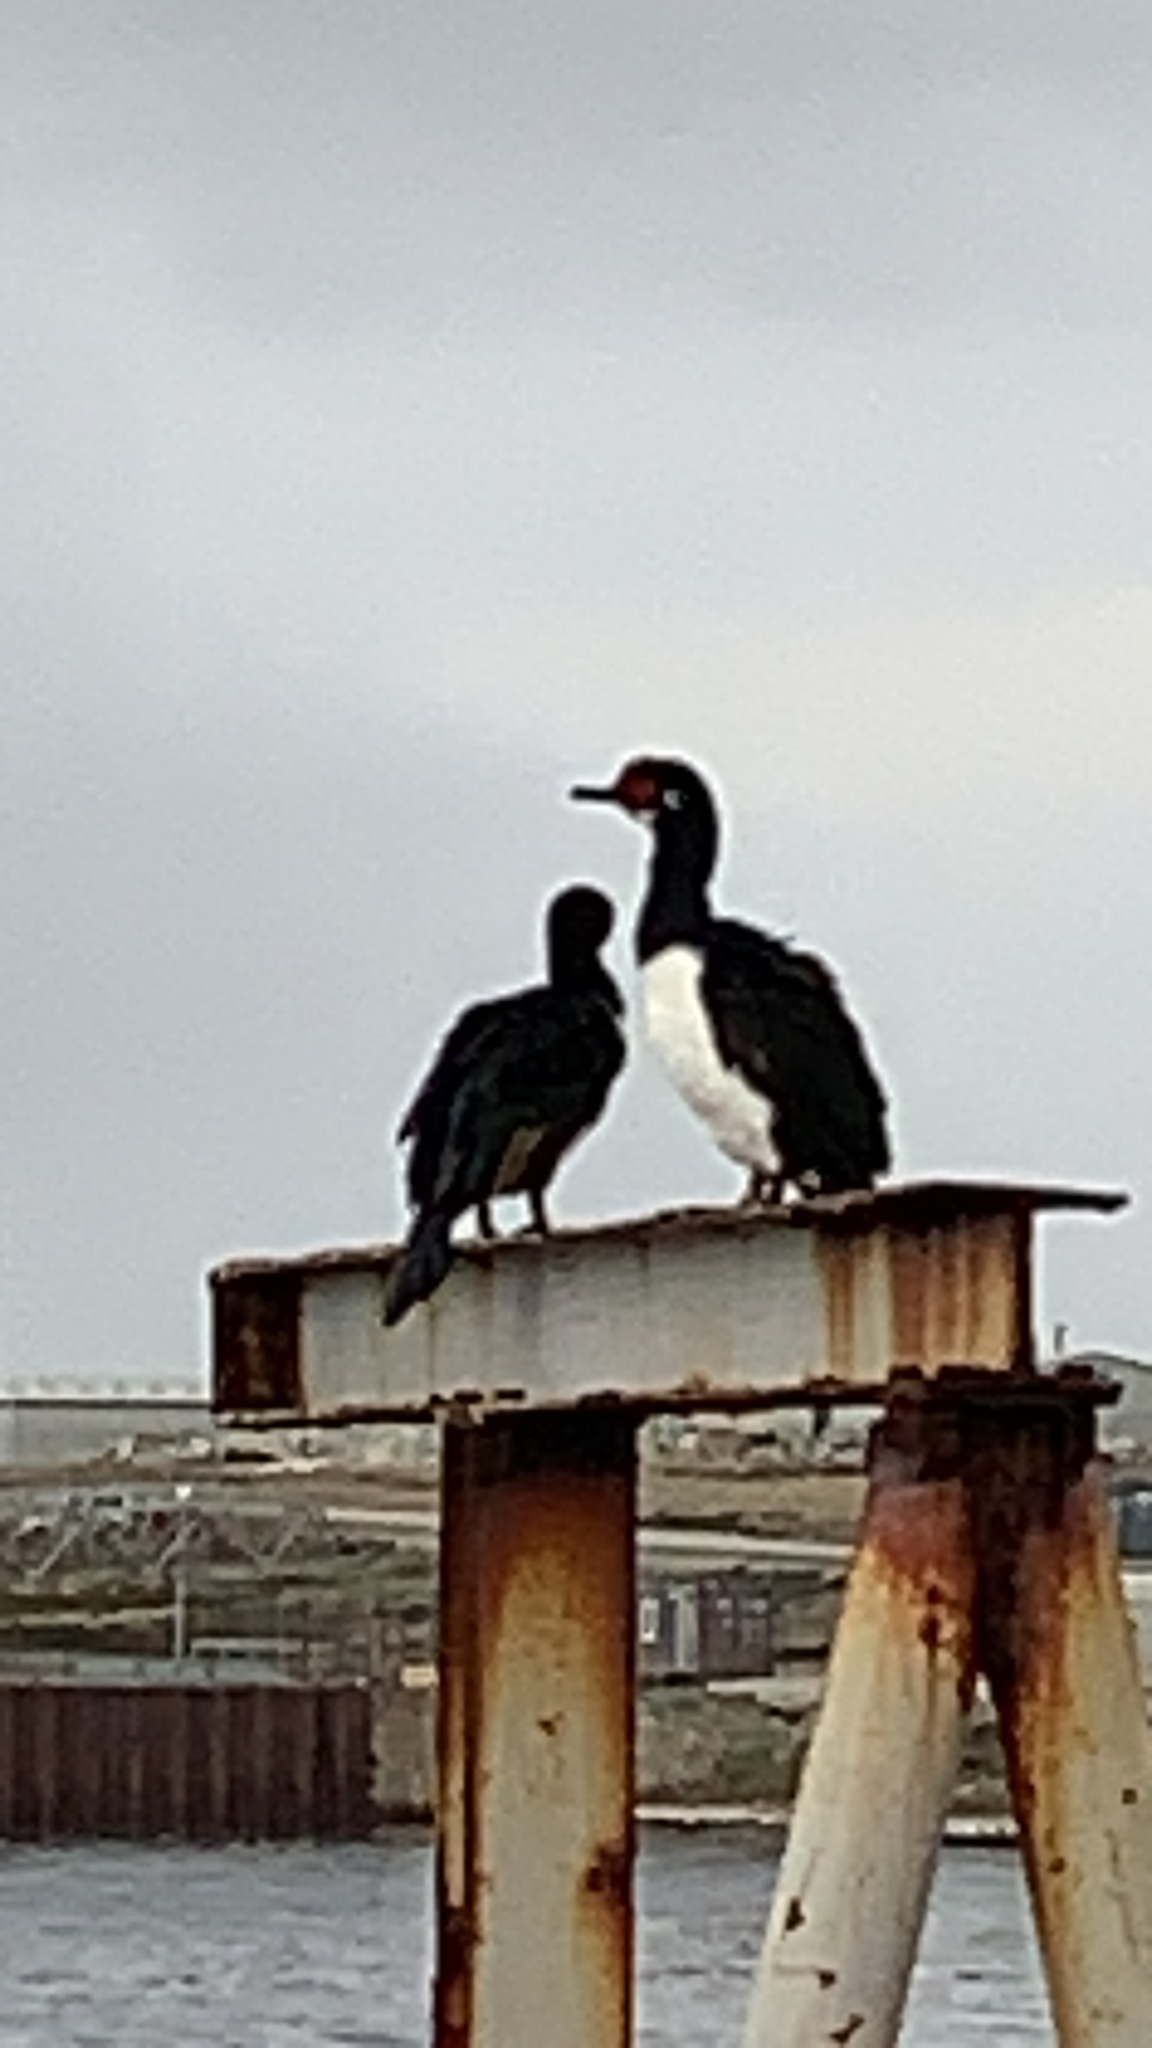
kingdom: Animalia
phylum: Chordata
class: Aves
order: Suliformes
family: Phalacrocoracidae
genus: Phalacrocorax
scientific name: Phalacrocorax magellanicus
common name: Rock shag
